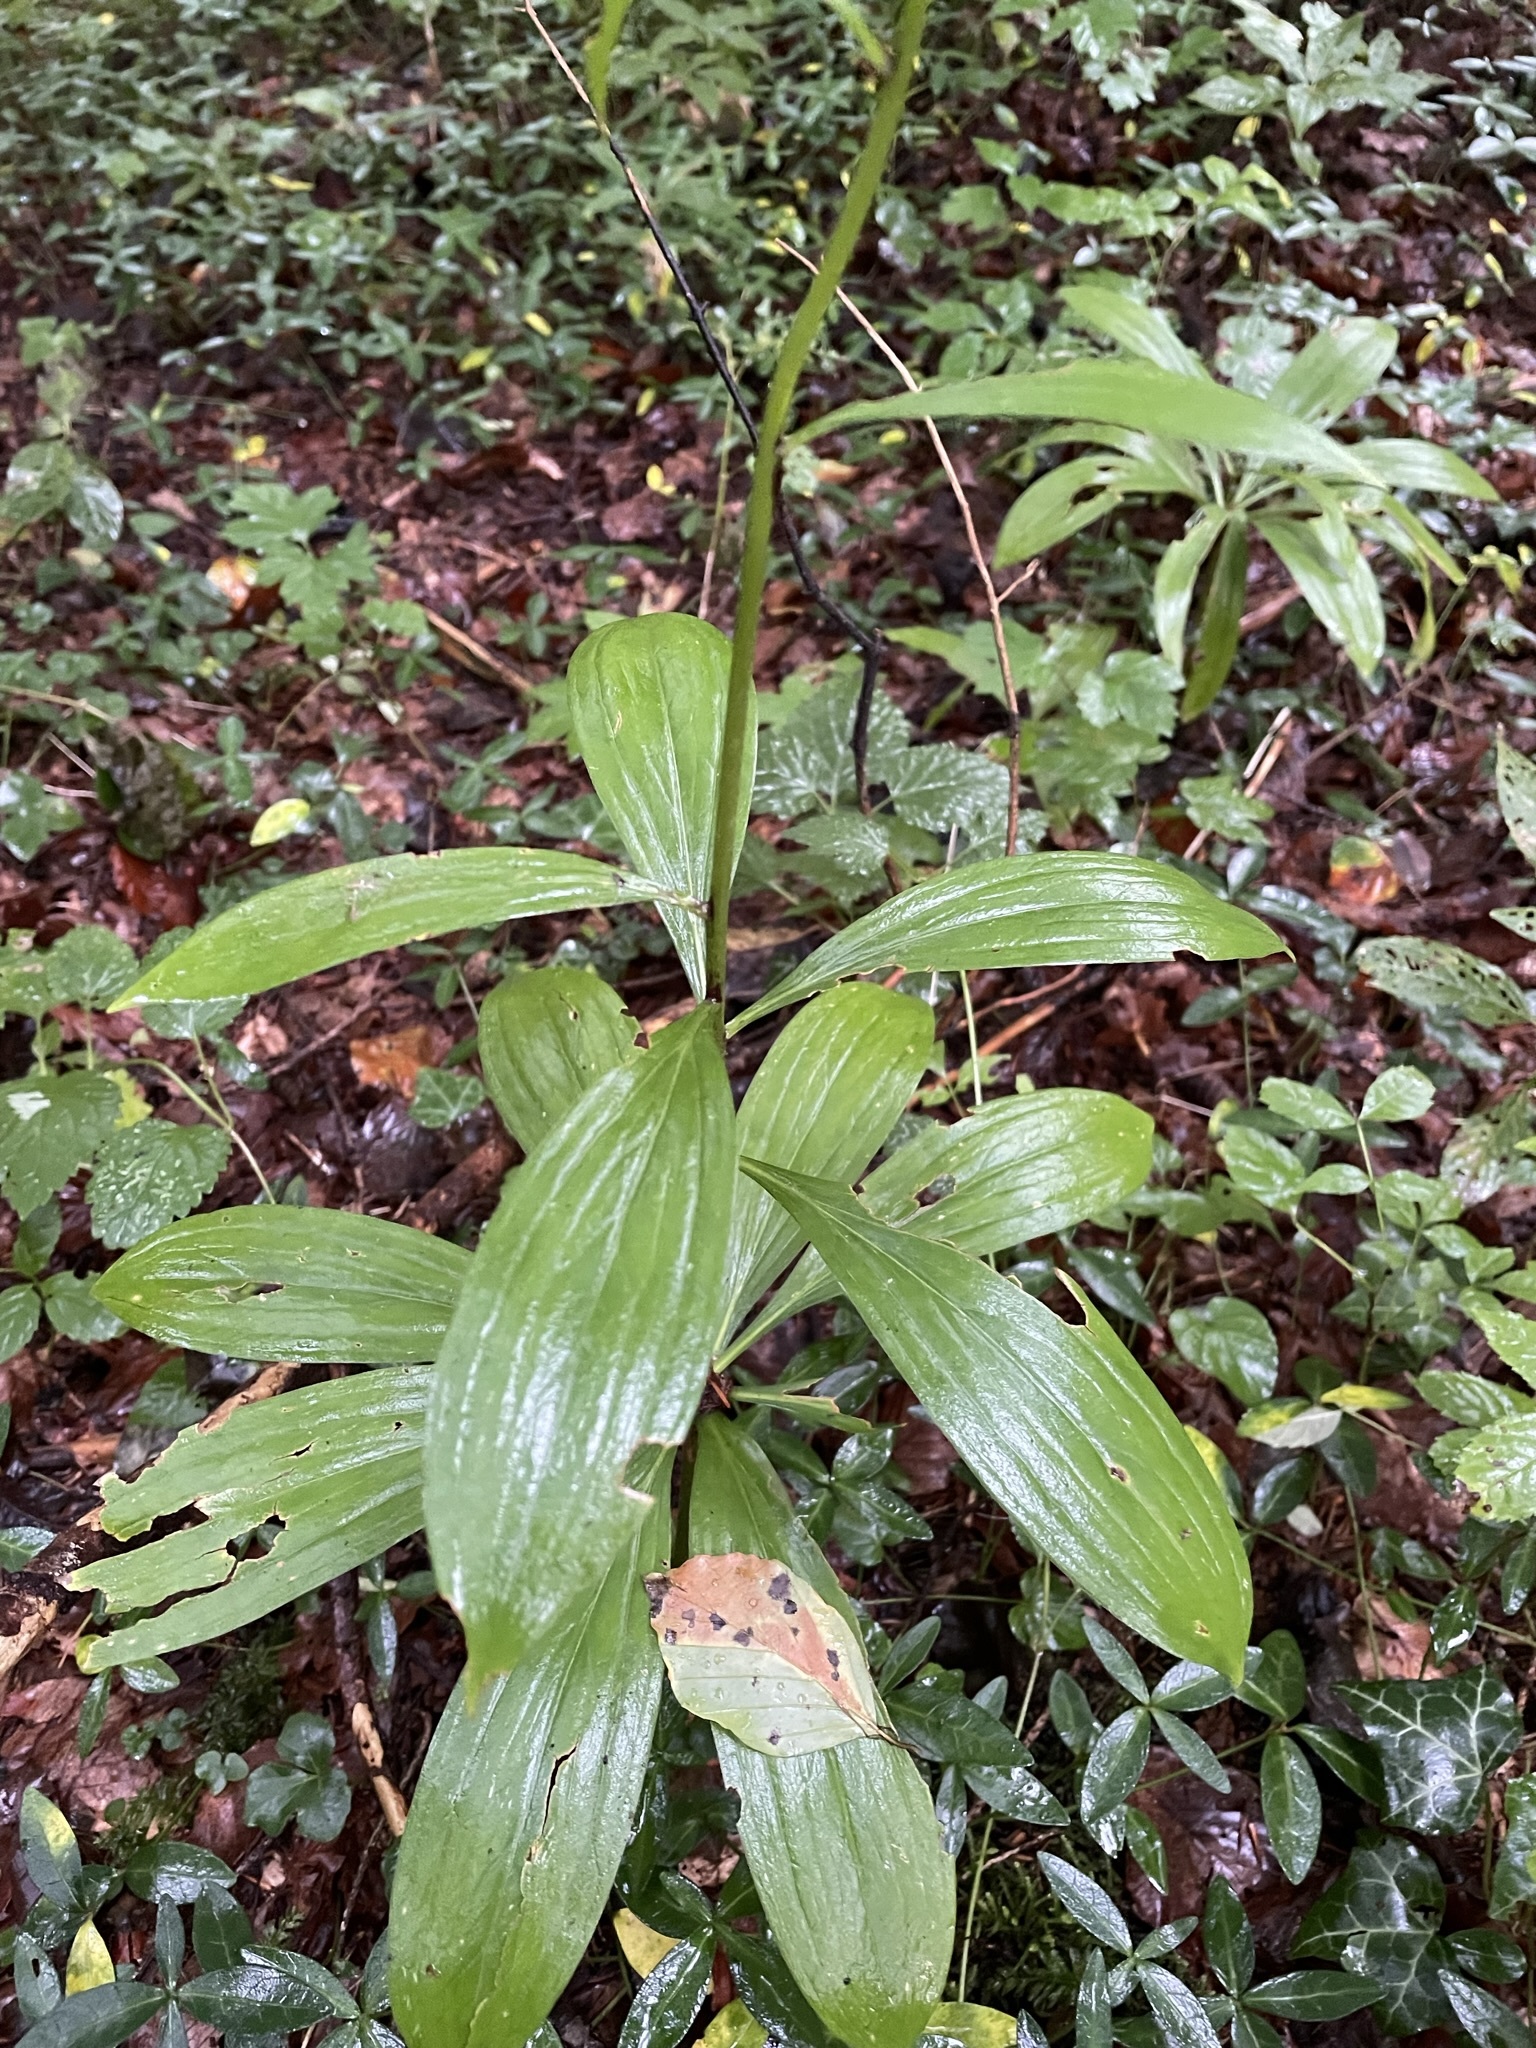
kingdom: Plantae
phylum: Tracheophyta
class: Liliopsida
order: Liliales
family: Liliaceae
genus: Lilium
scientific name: Lilium martagon
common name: Martagon lily
